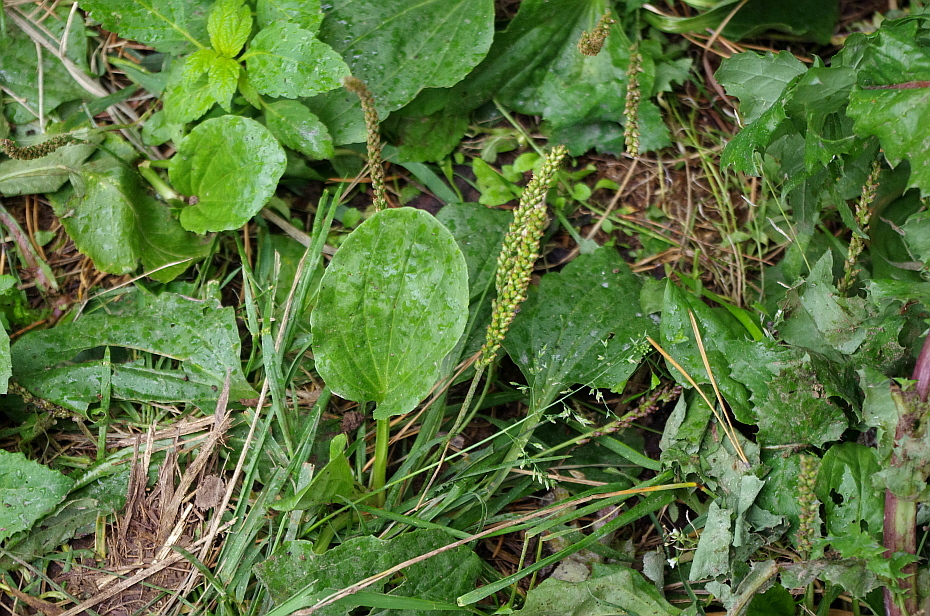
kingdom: Plantae
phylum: Tracheophyta
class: Magnoliopsida
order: Lamiales
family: Plantaginaceae
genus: Plantago
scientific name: Plantago major
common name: Common plantain
